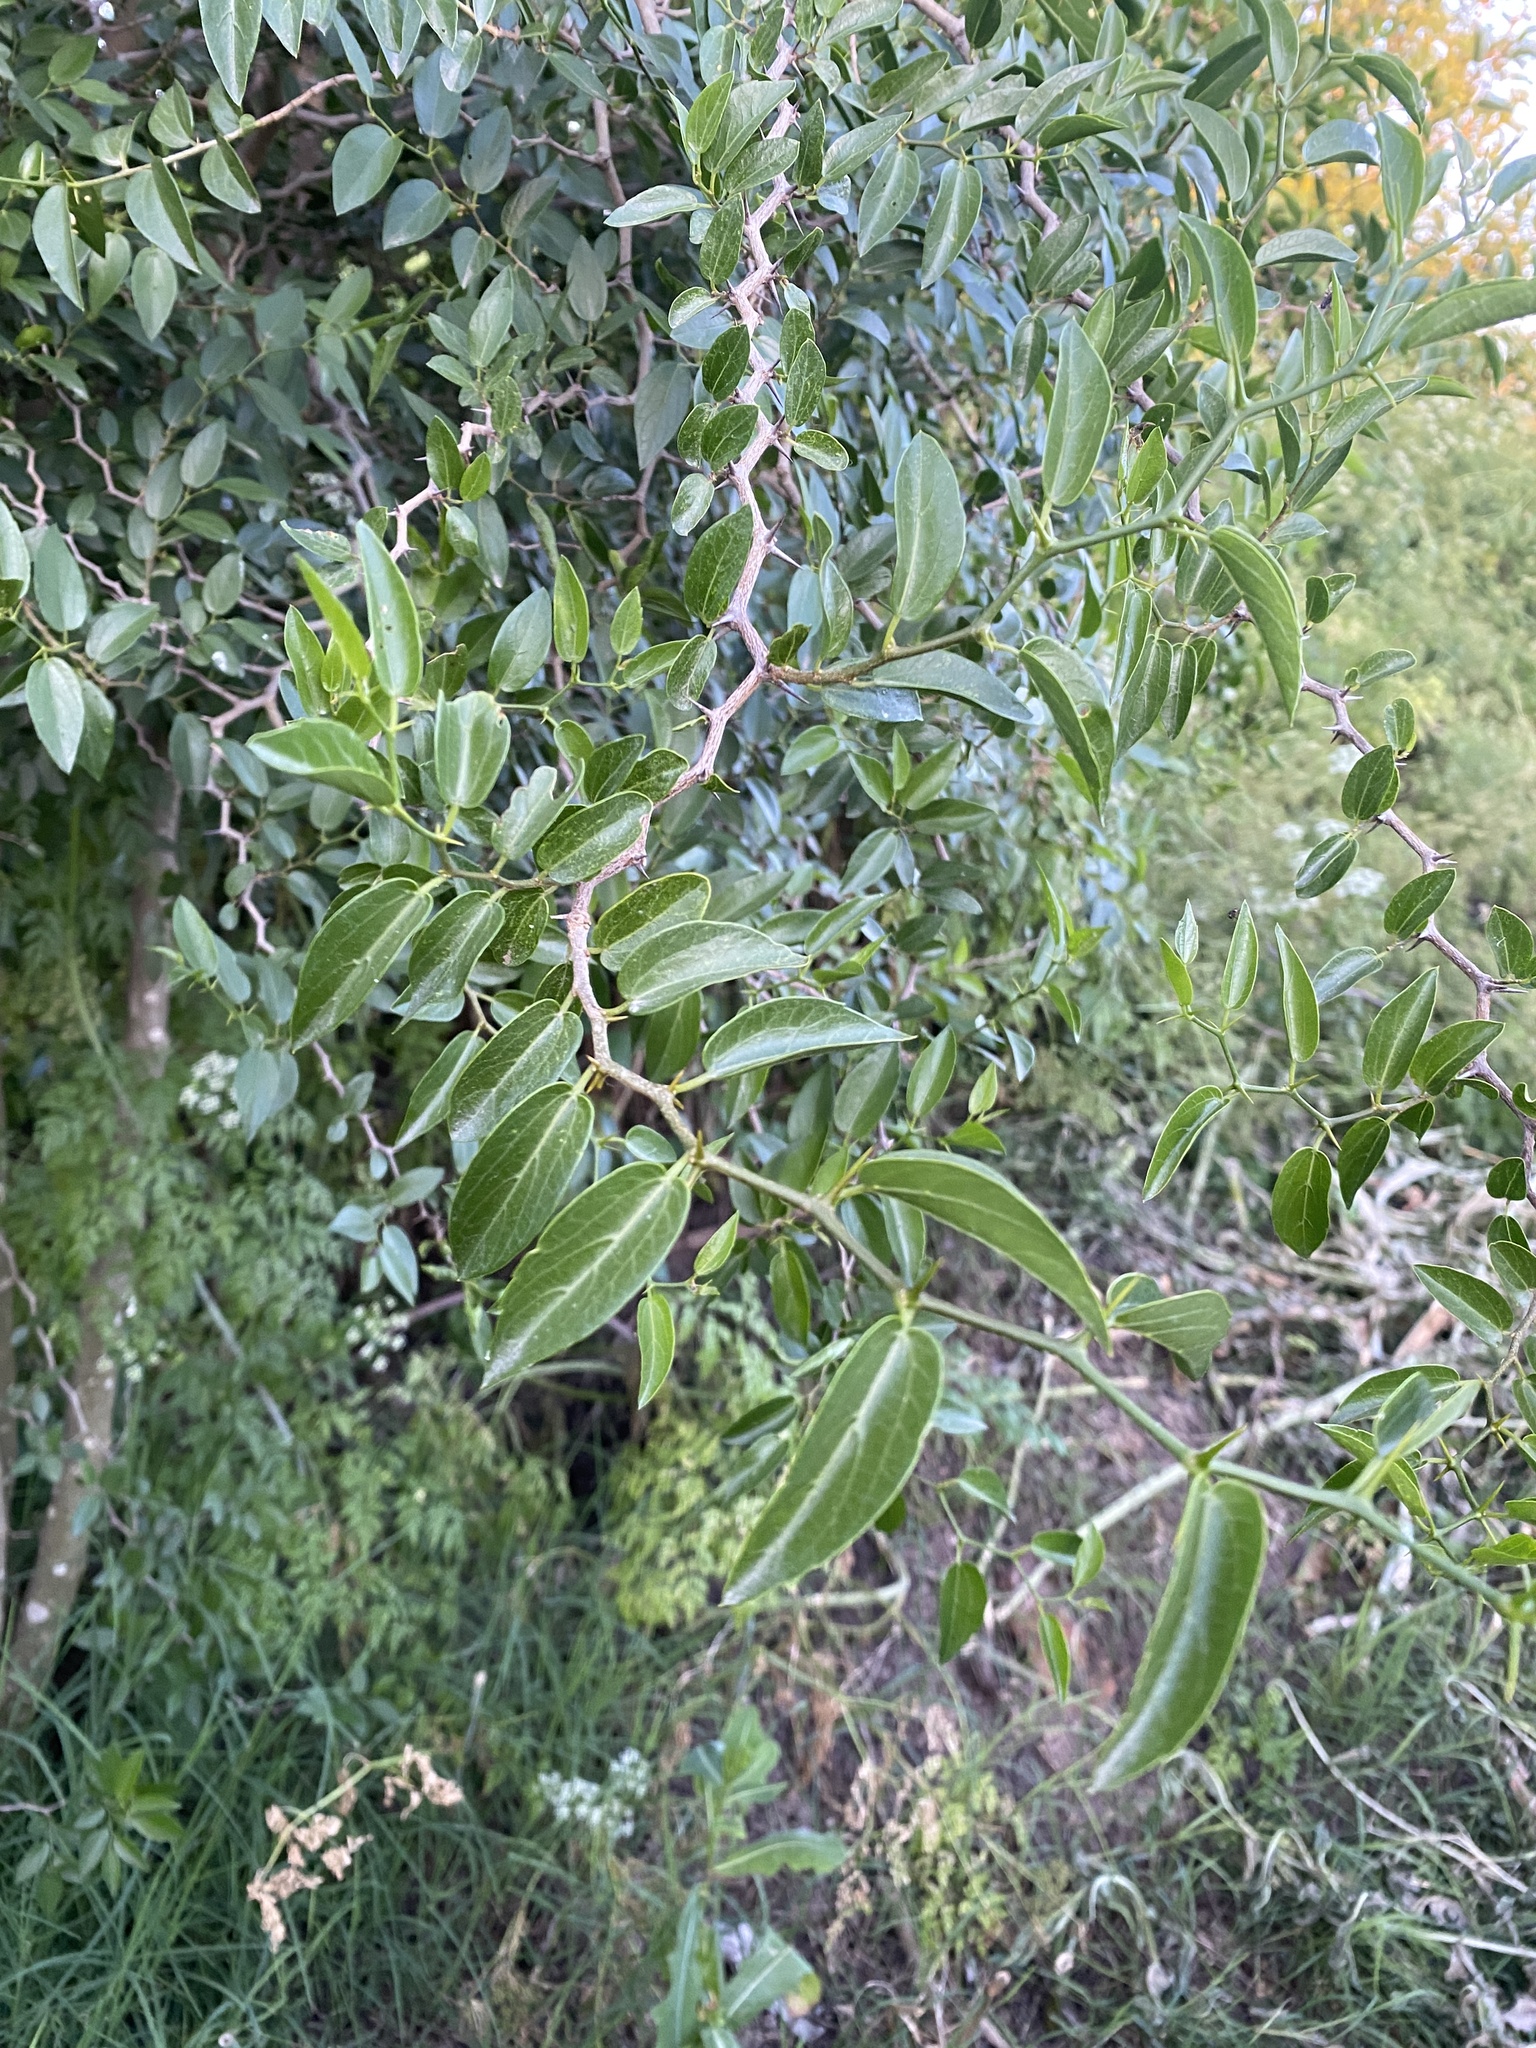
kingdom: Plantae
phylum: Tracheophyta
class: Magnoliopsida
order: Rosales
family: Cannabaceae
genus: Celtis
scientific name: Celtis tala
